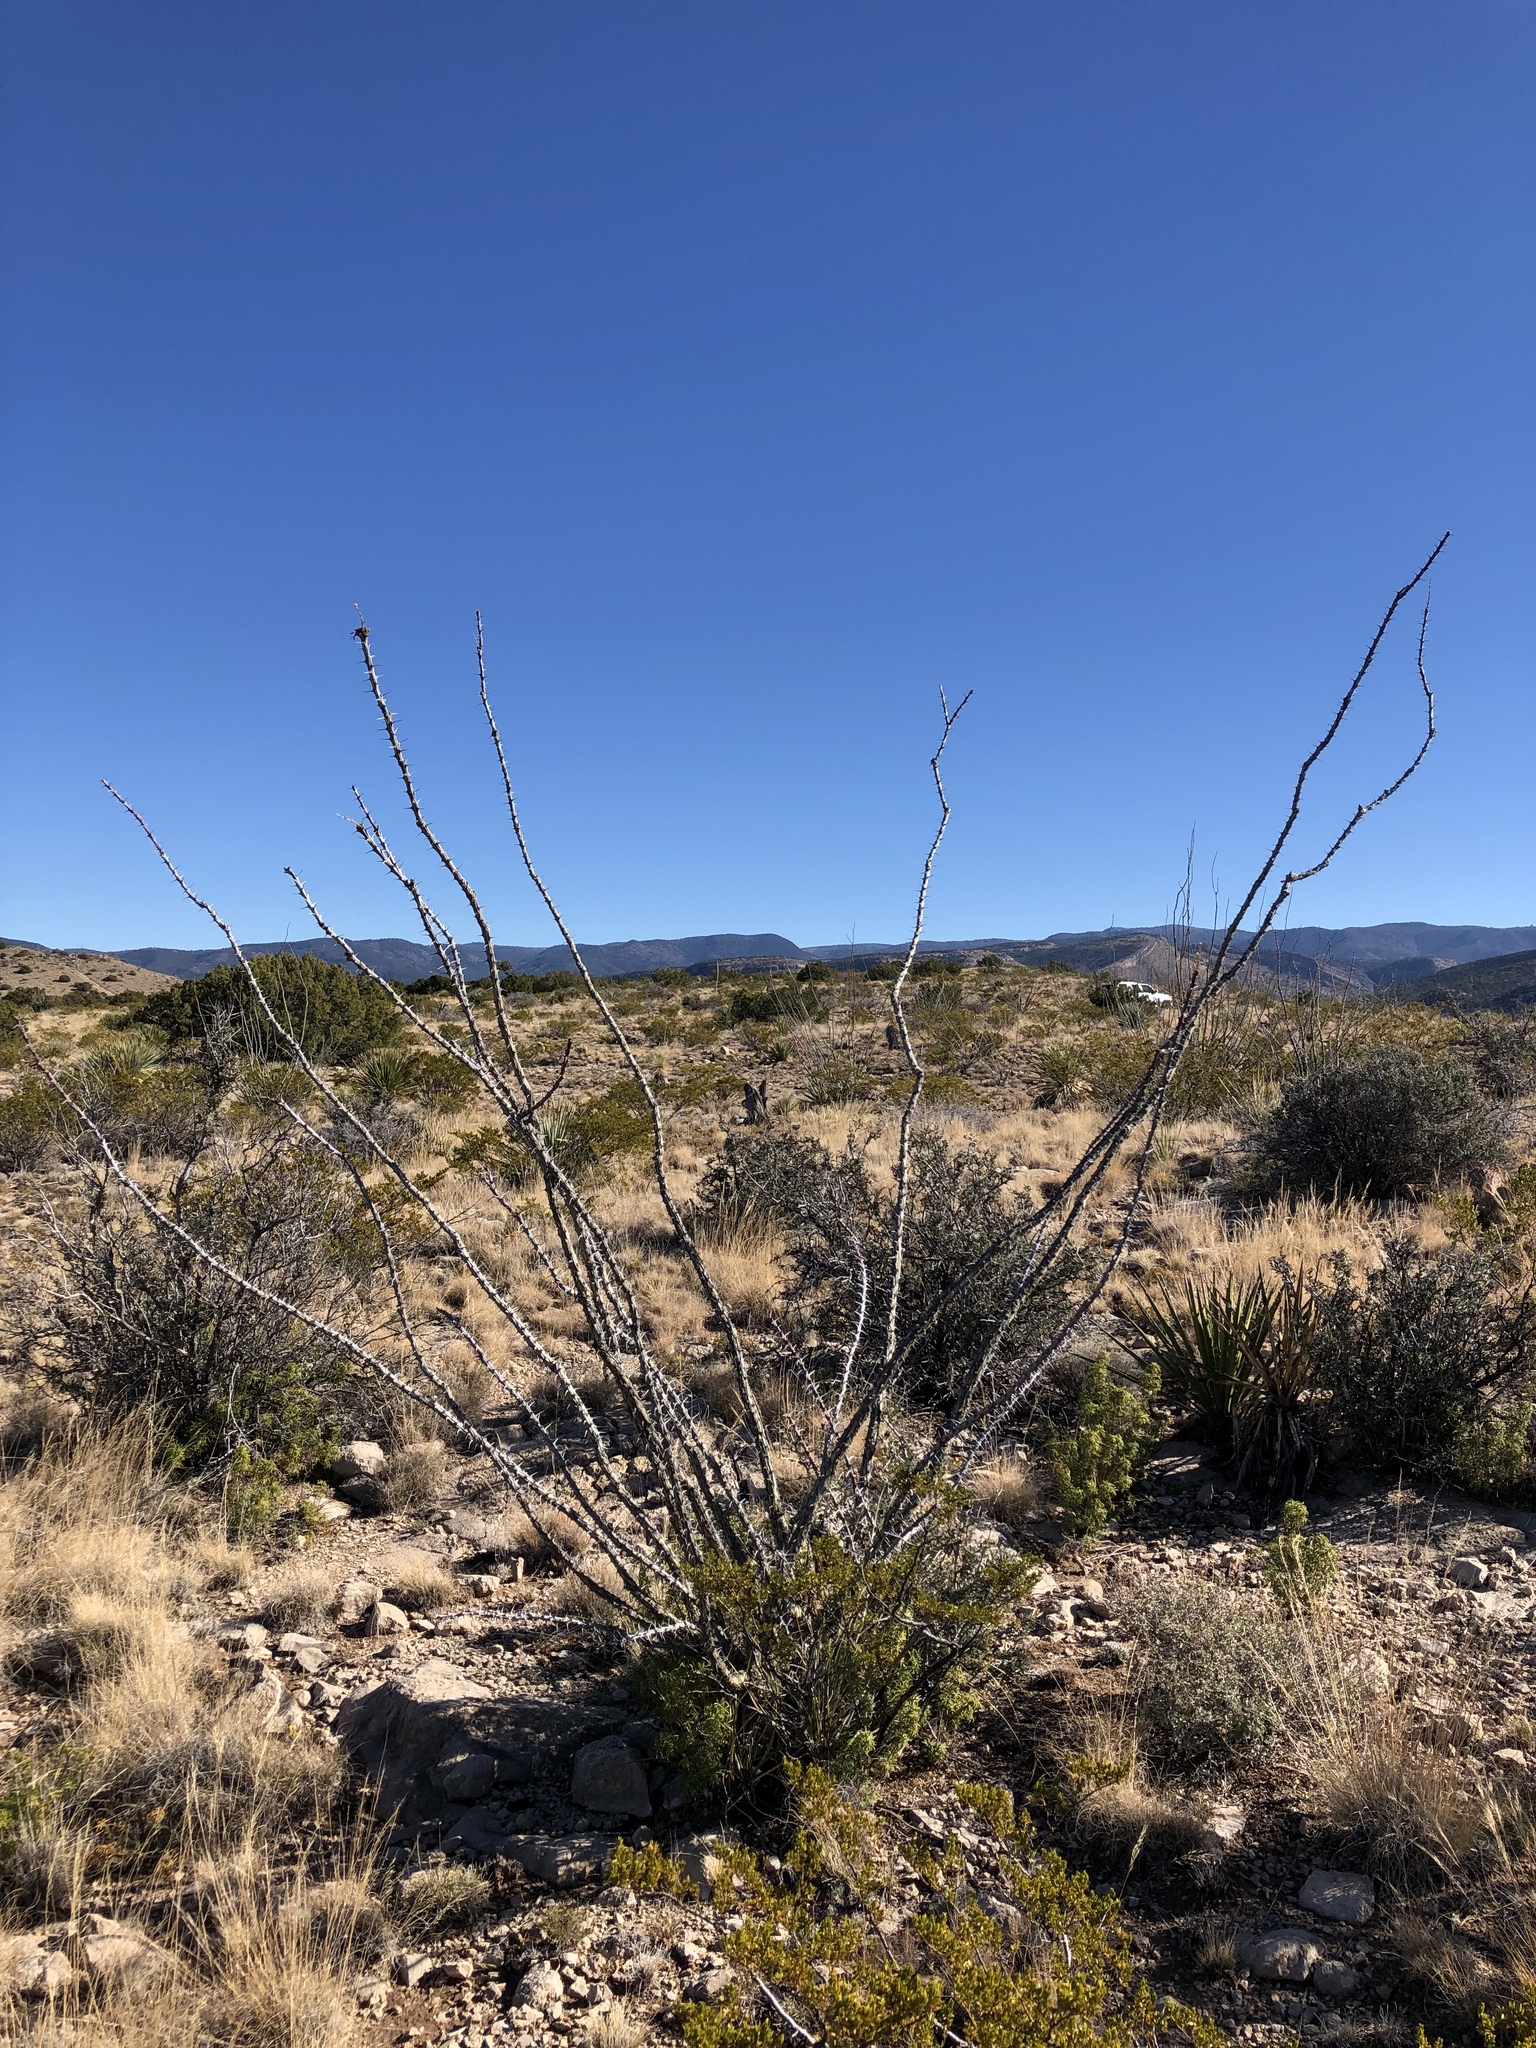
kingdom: Plantae
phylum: Tracheophyta
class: Magnoliopsida
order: Ericales
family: Fouquieriaceae
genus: Fouquieria
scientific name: Fouquieria splendens
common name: Vine-cactus
